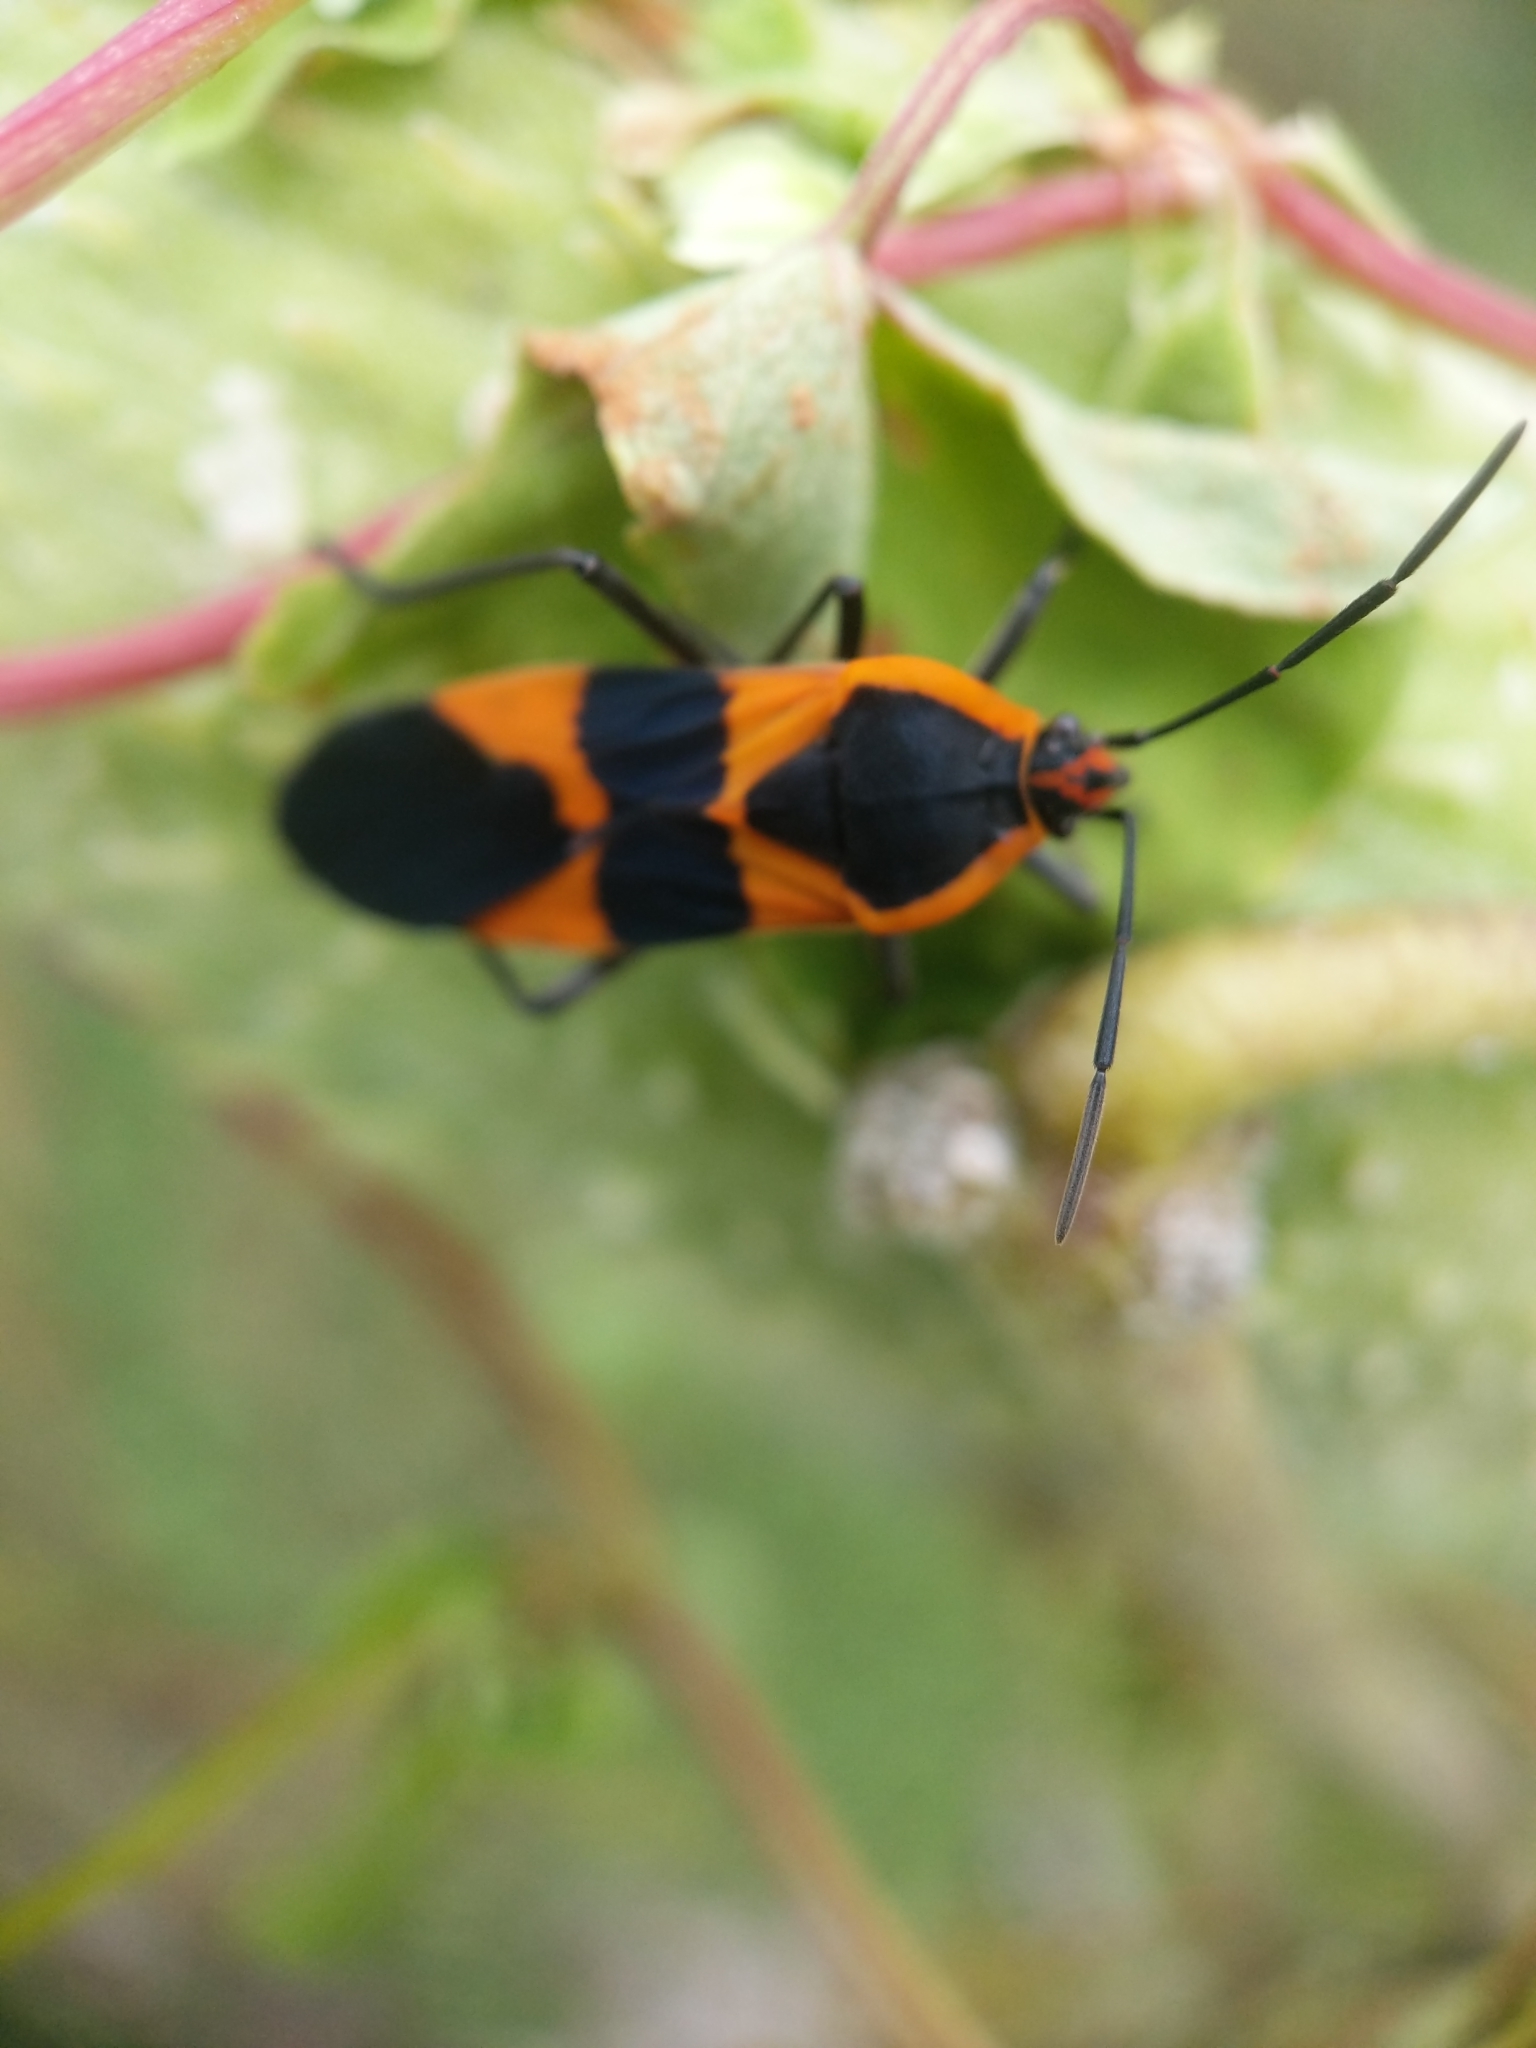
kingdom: Animalia
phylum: Arthropoda
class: Insecta
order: Hemiptera
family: Lygaeidae
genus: Oncopeltus
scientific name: Oncopeltus fasciatus
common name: Large milkweed bug
